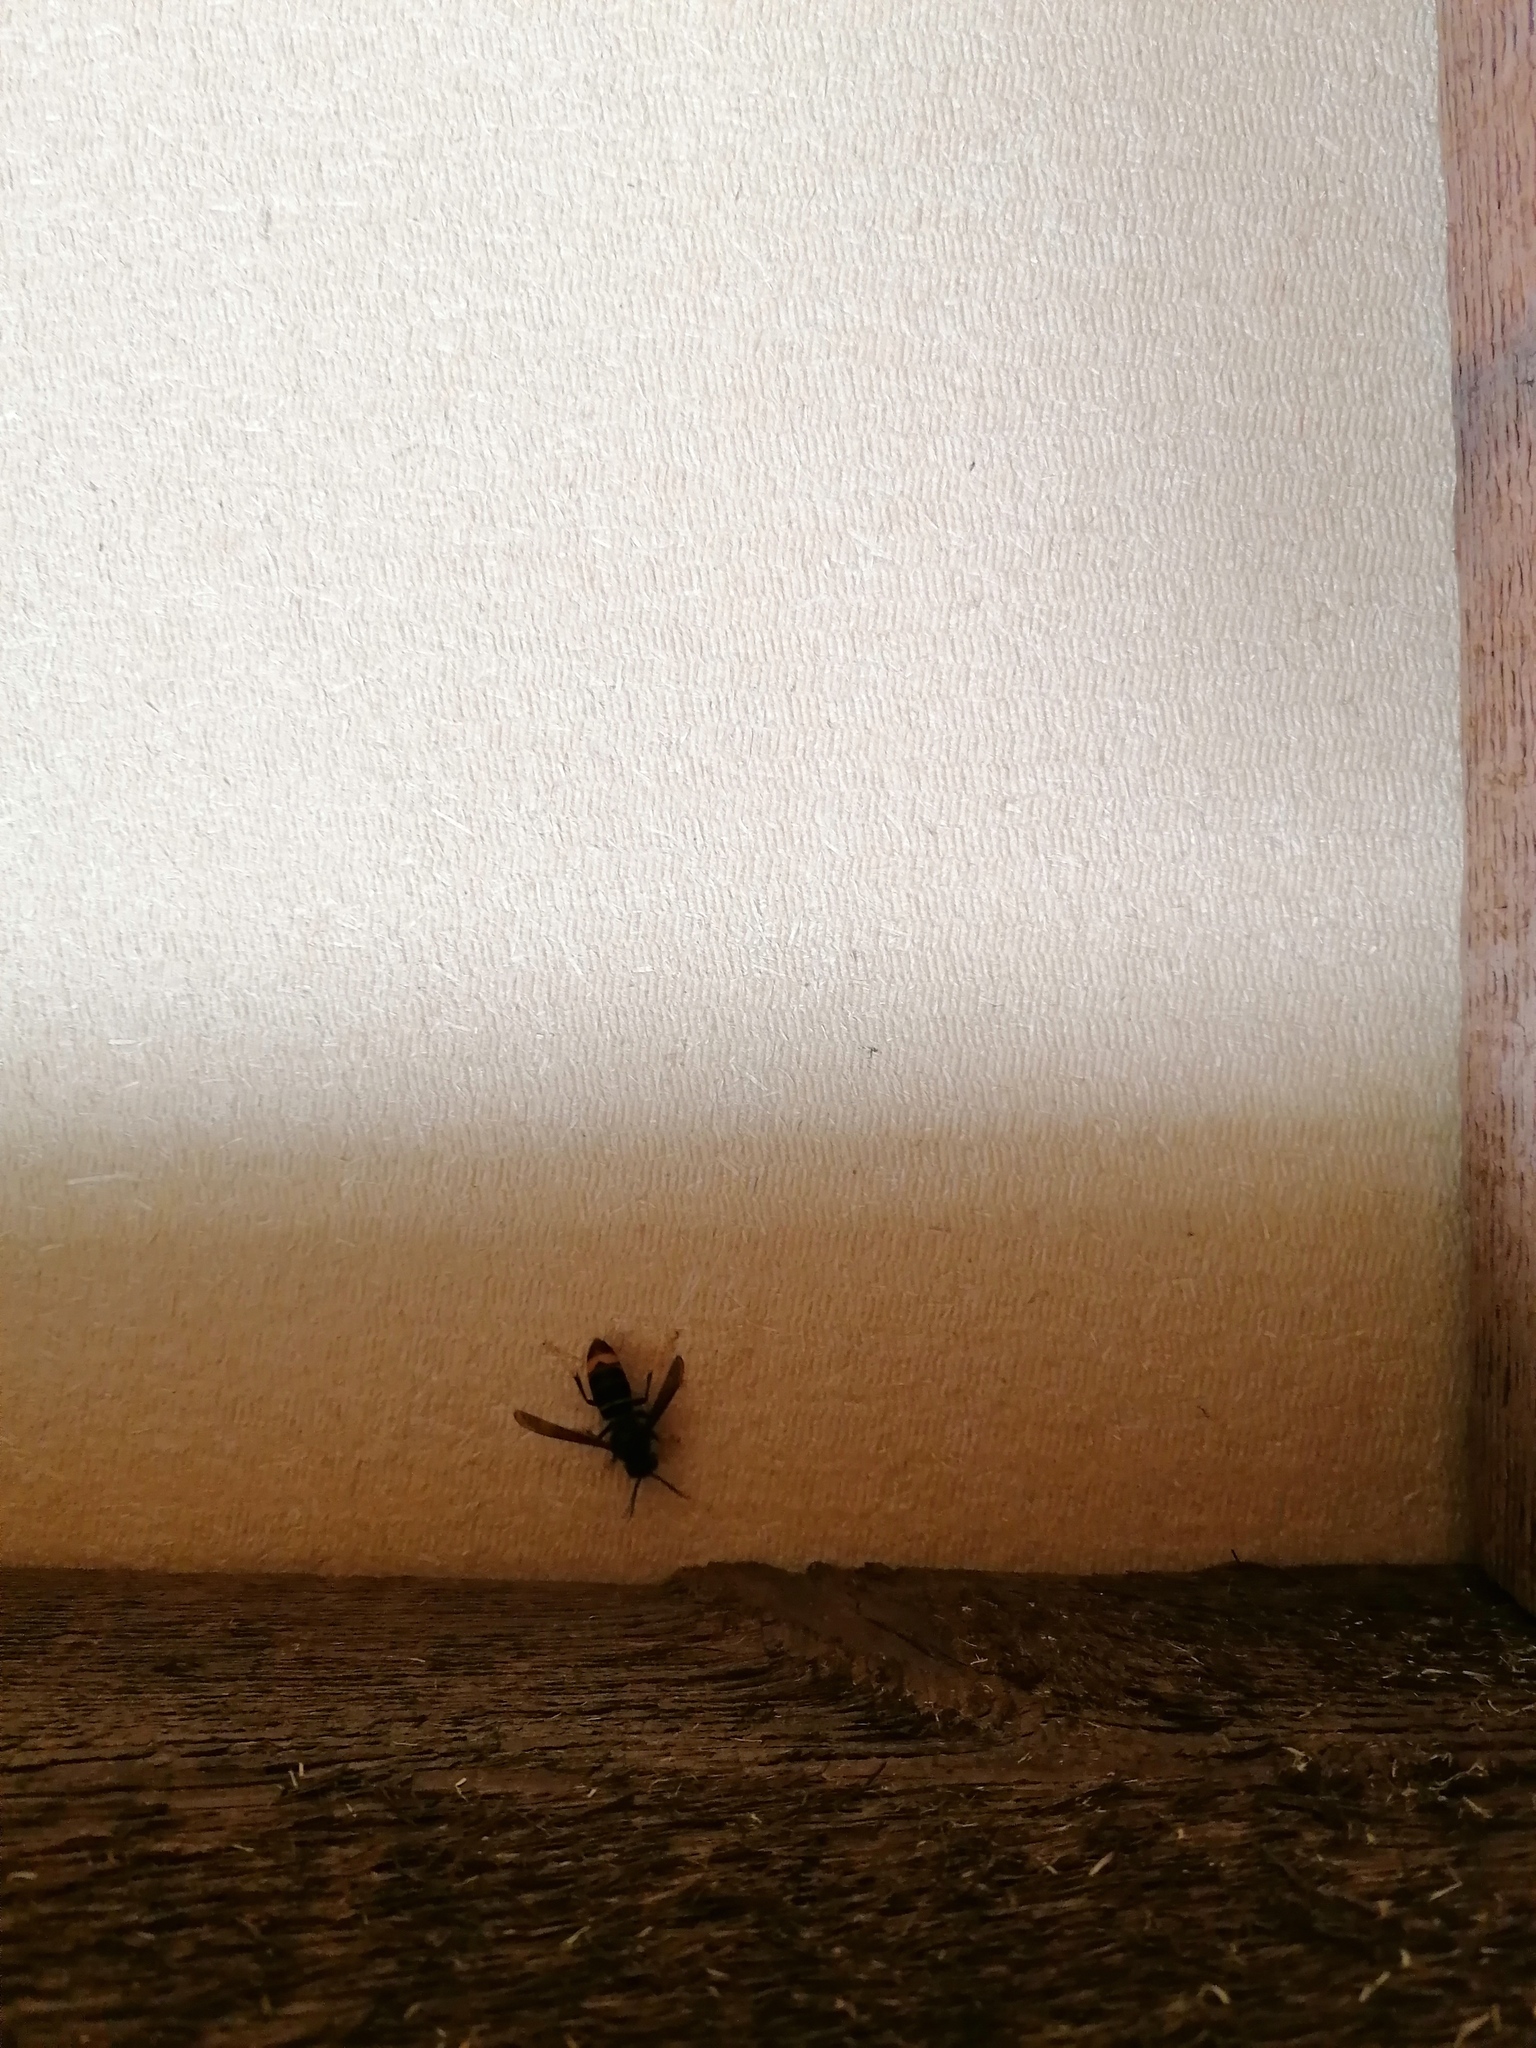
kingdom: Animalia
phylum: Arthropoda
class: Insecta
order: Hymenoptera
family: Vespidae
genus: Vespa
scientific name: Vespa velutina
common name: Asian hornet
